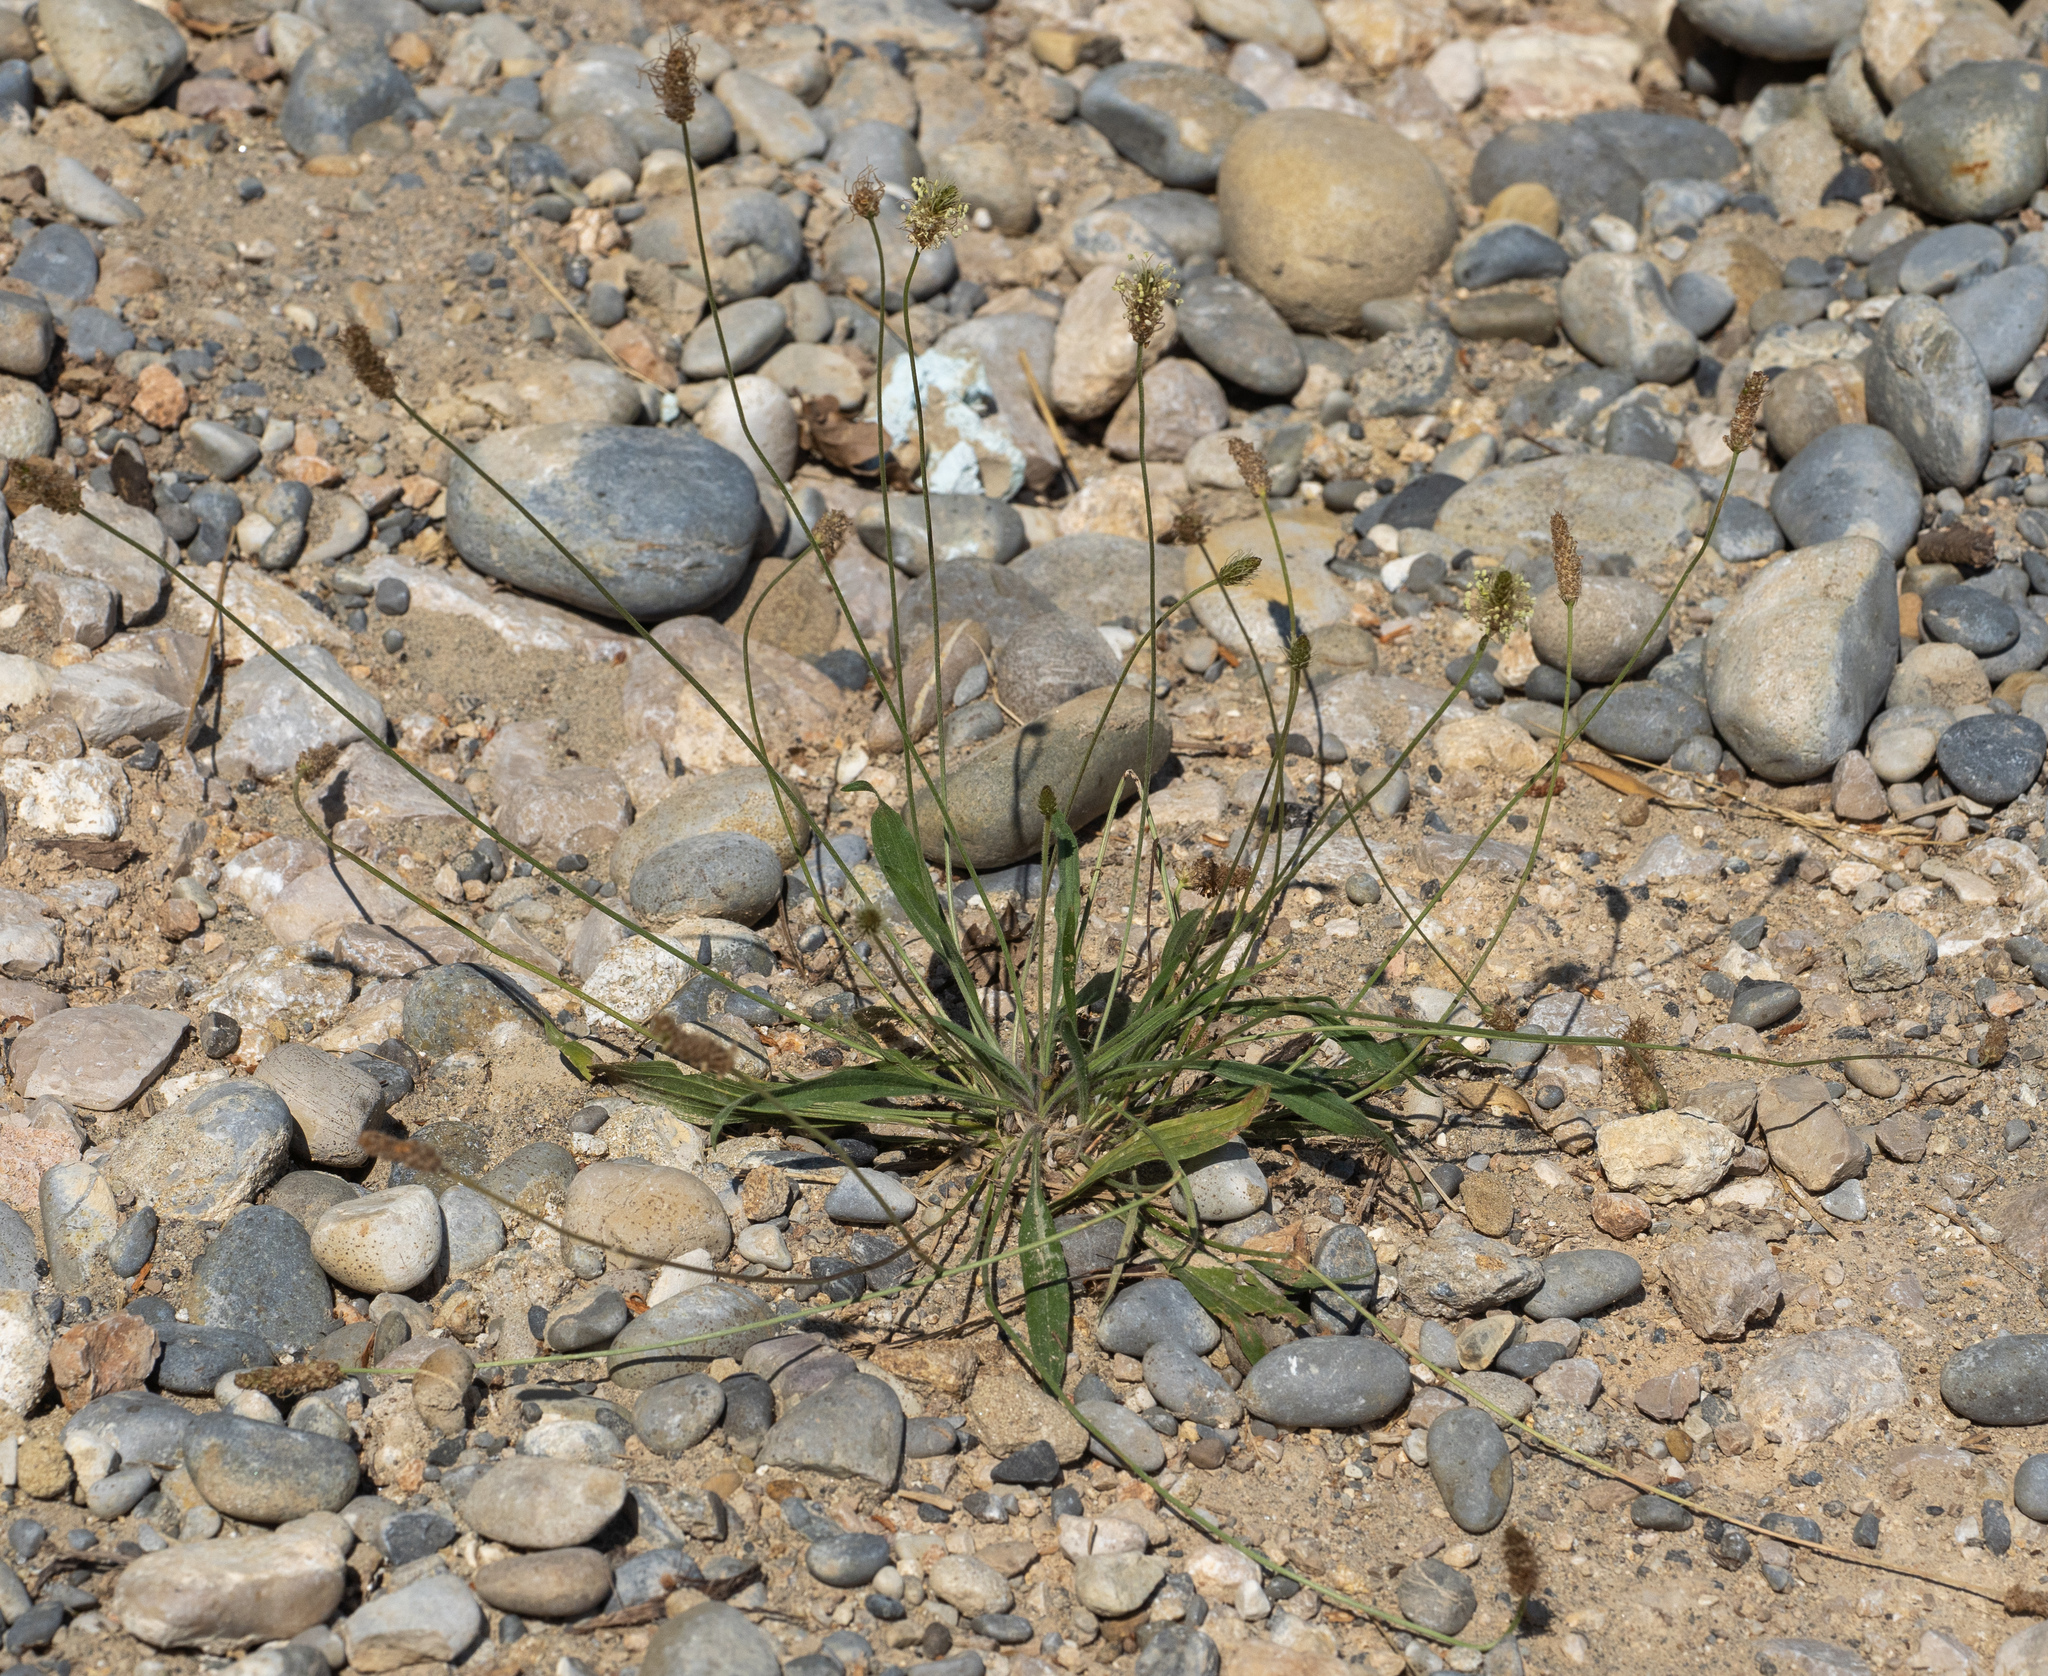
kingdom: Plantae
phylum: Tracheophyta
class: Magnoliopsida
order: Lamiales
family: Plantaginaceae
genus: Plantago
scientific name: Plantago lanceolata
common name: Ribwort plantain
